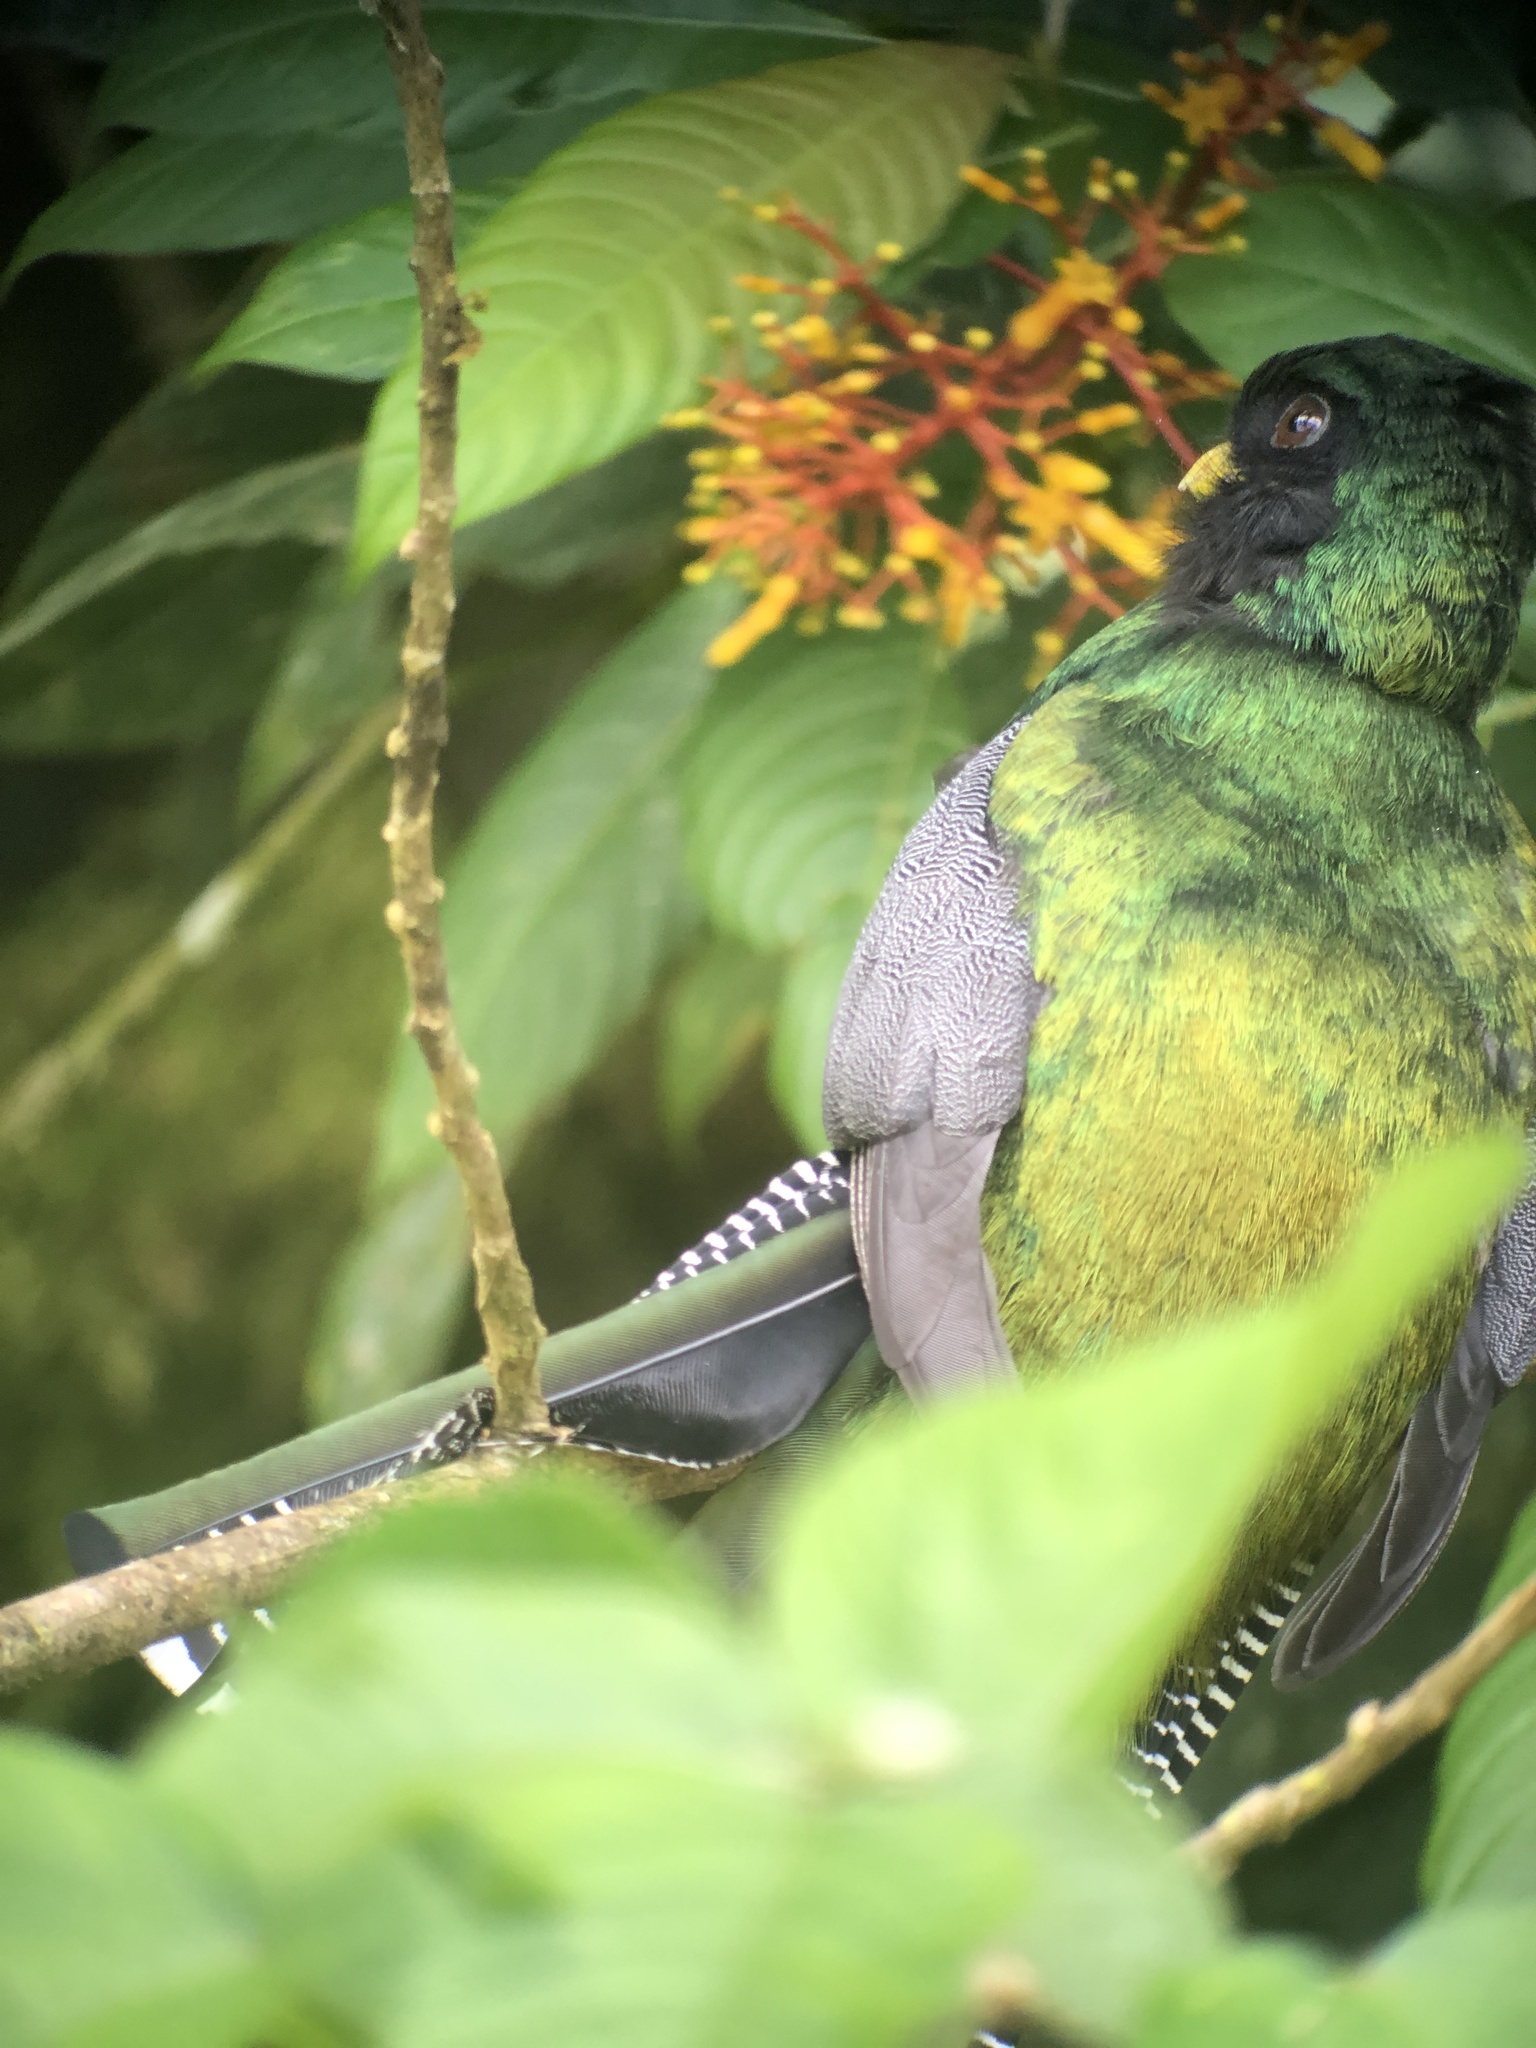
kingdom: Animalia
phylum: Chordata
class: Aves
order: Trogoniformes
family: Trogonidae
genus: Trogon
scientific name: Trogon collaris
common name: Collared trogon
